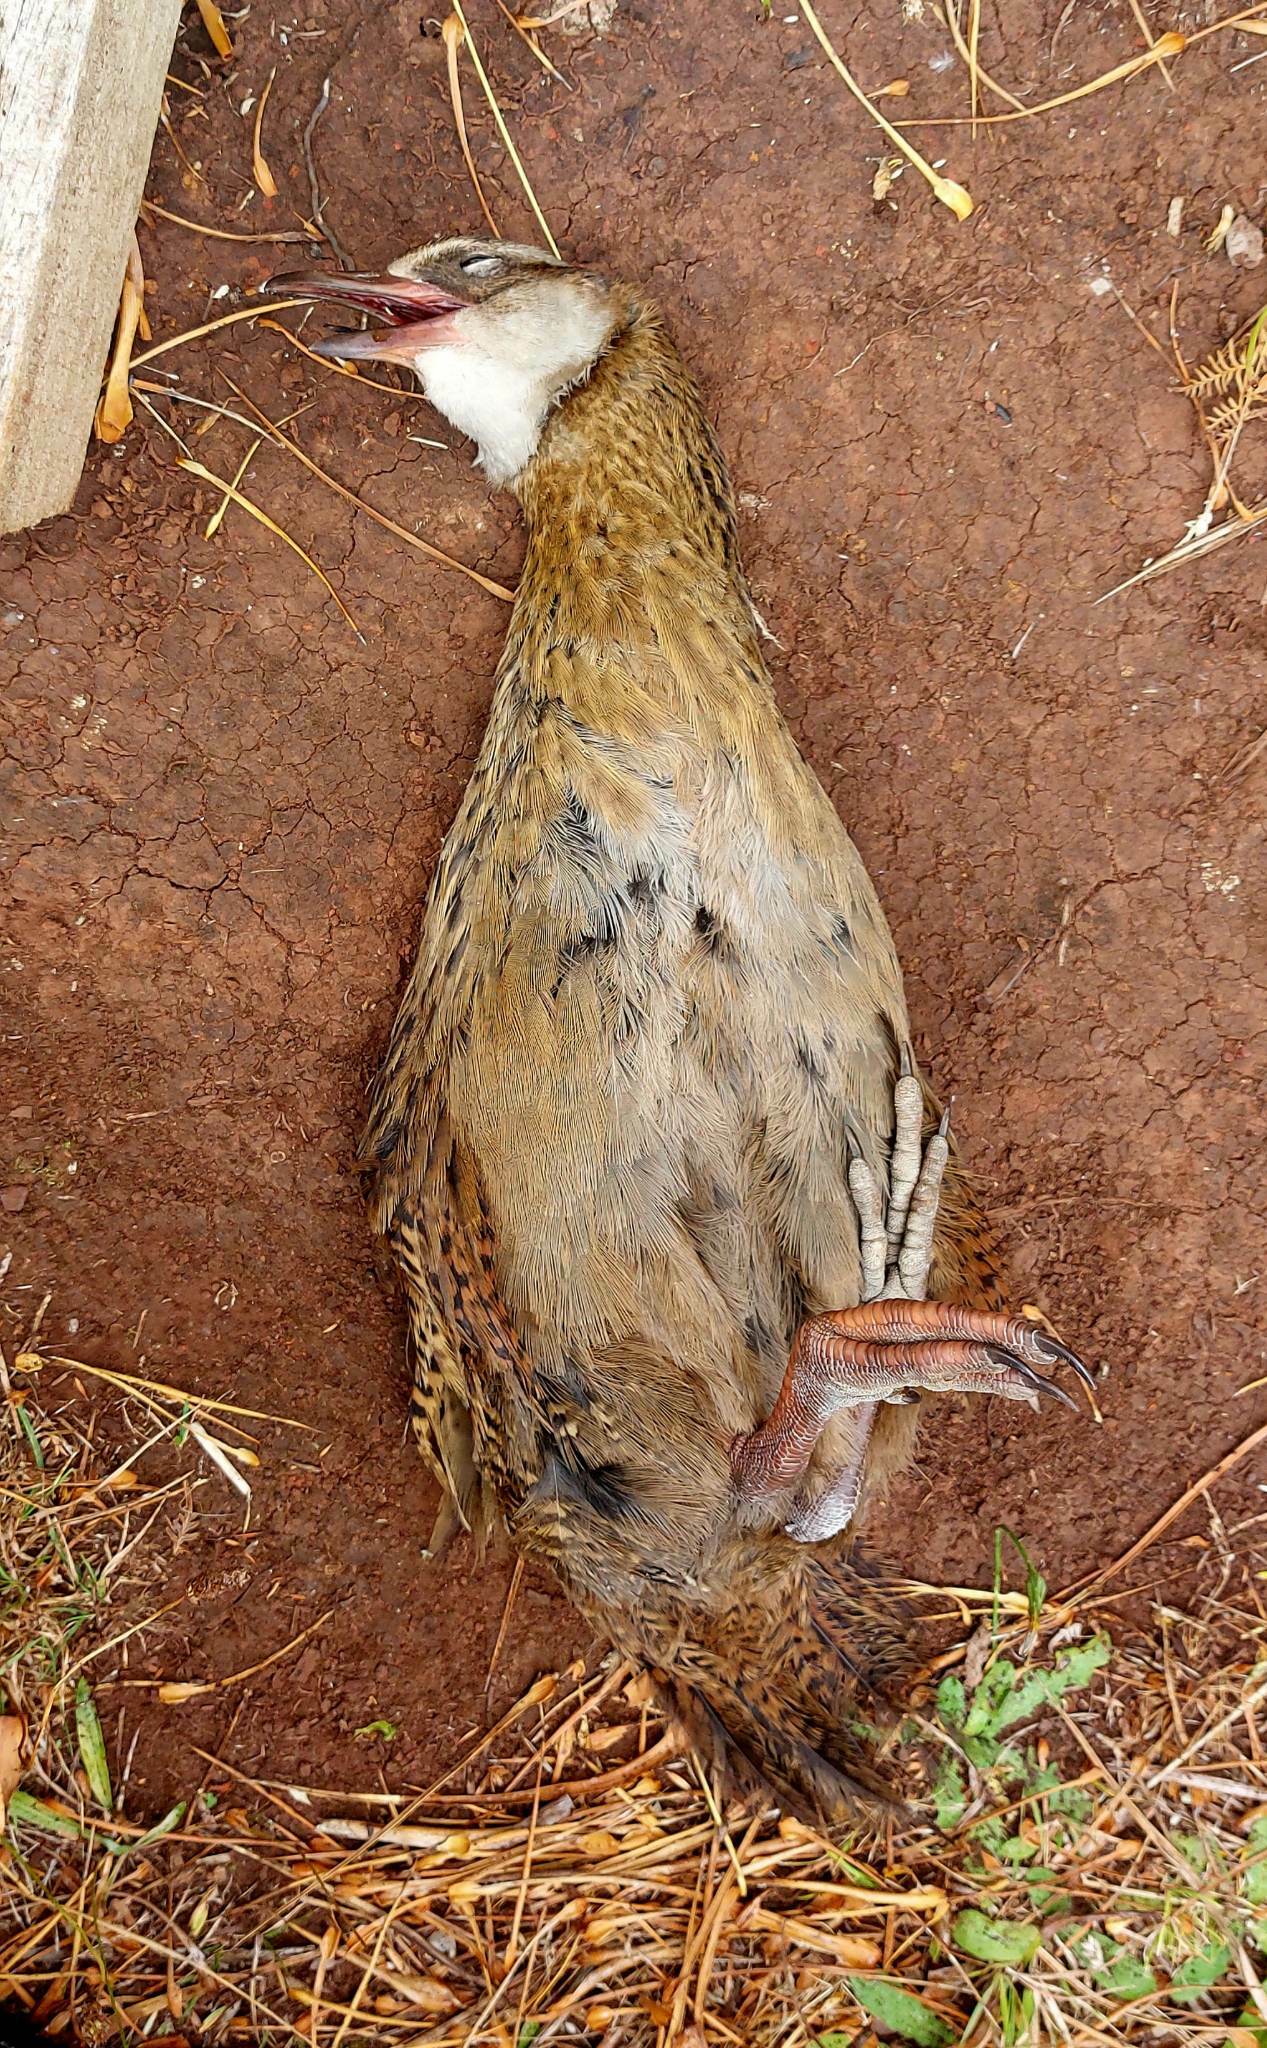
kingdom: Animalia
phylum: Chordata
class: Aves
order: Gruiformes
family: Rallidae
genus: Gallirallus
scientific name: Gallirallus australis
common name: Weka
